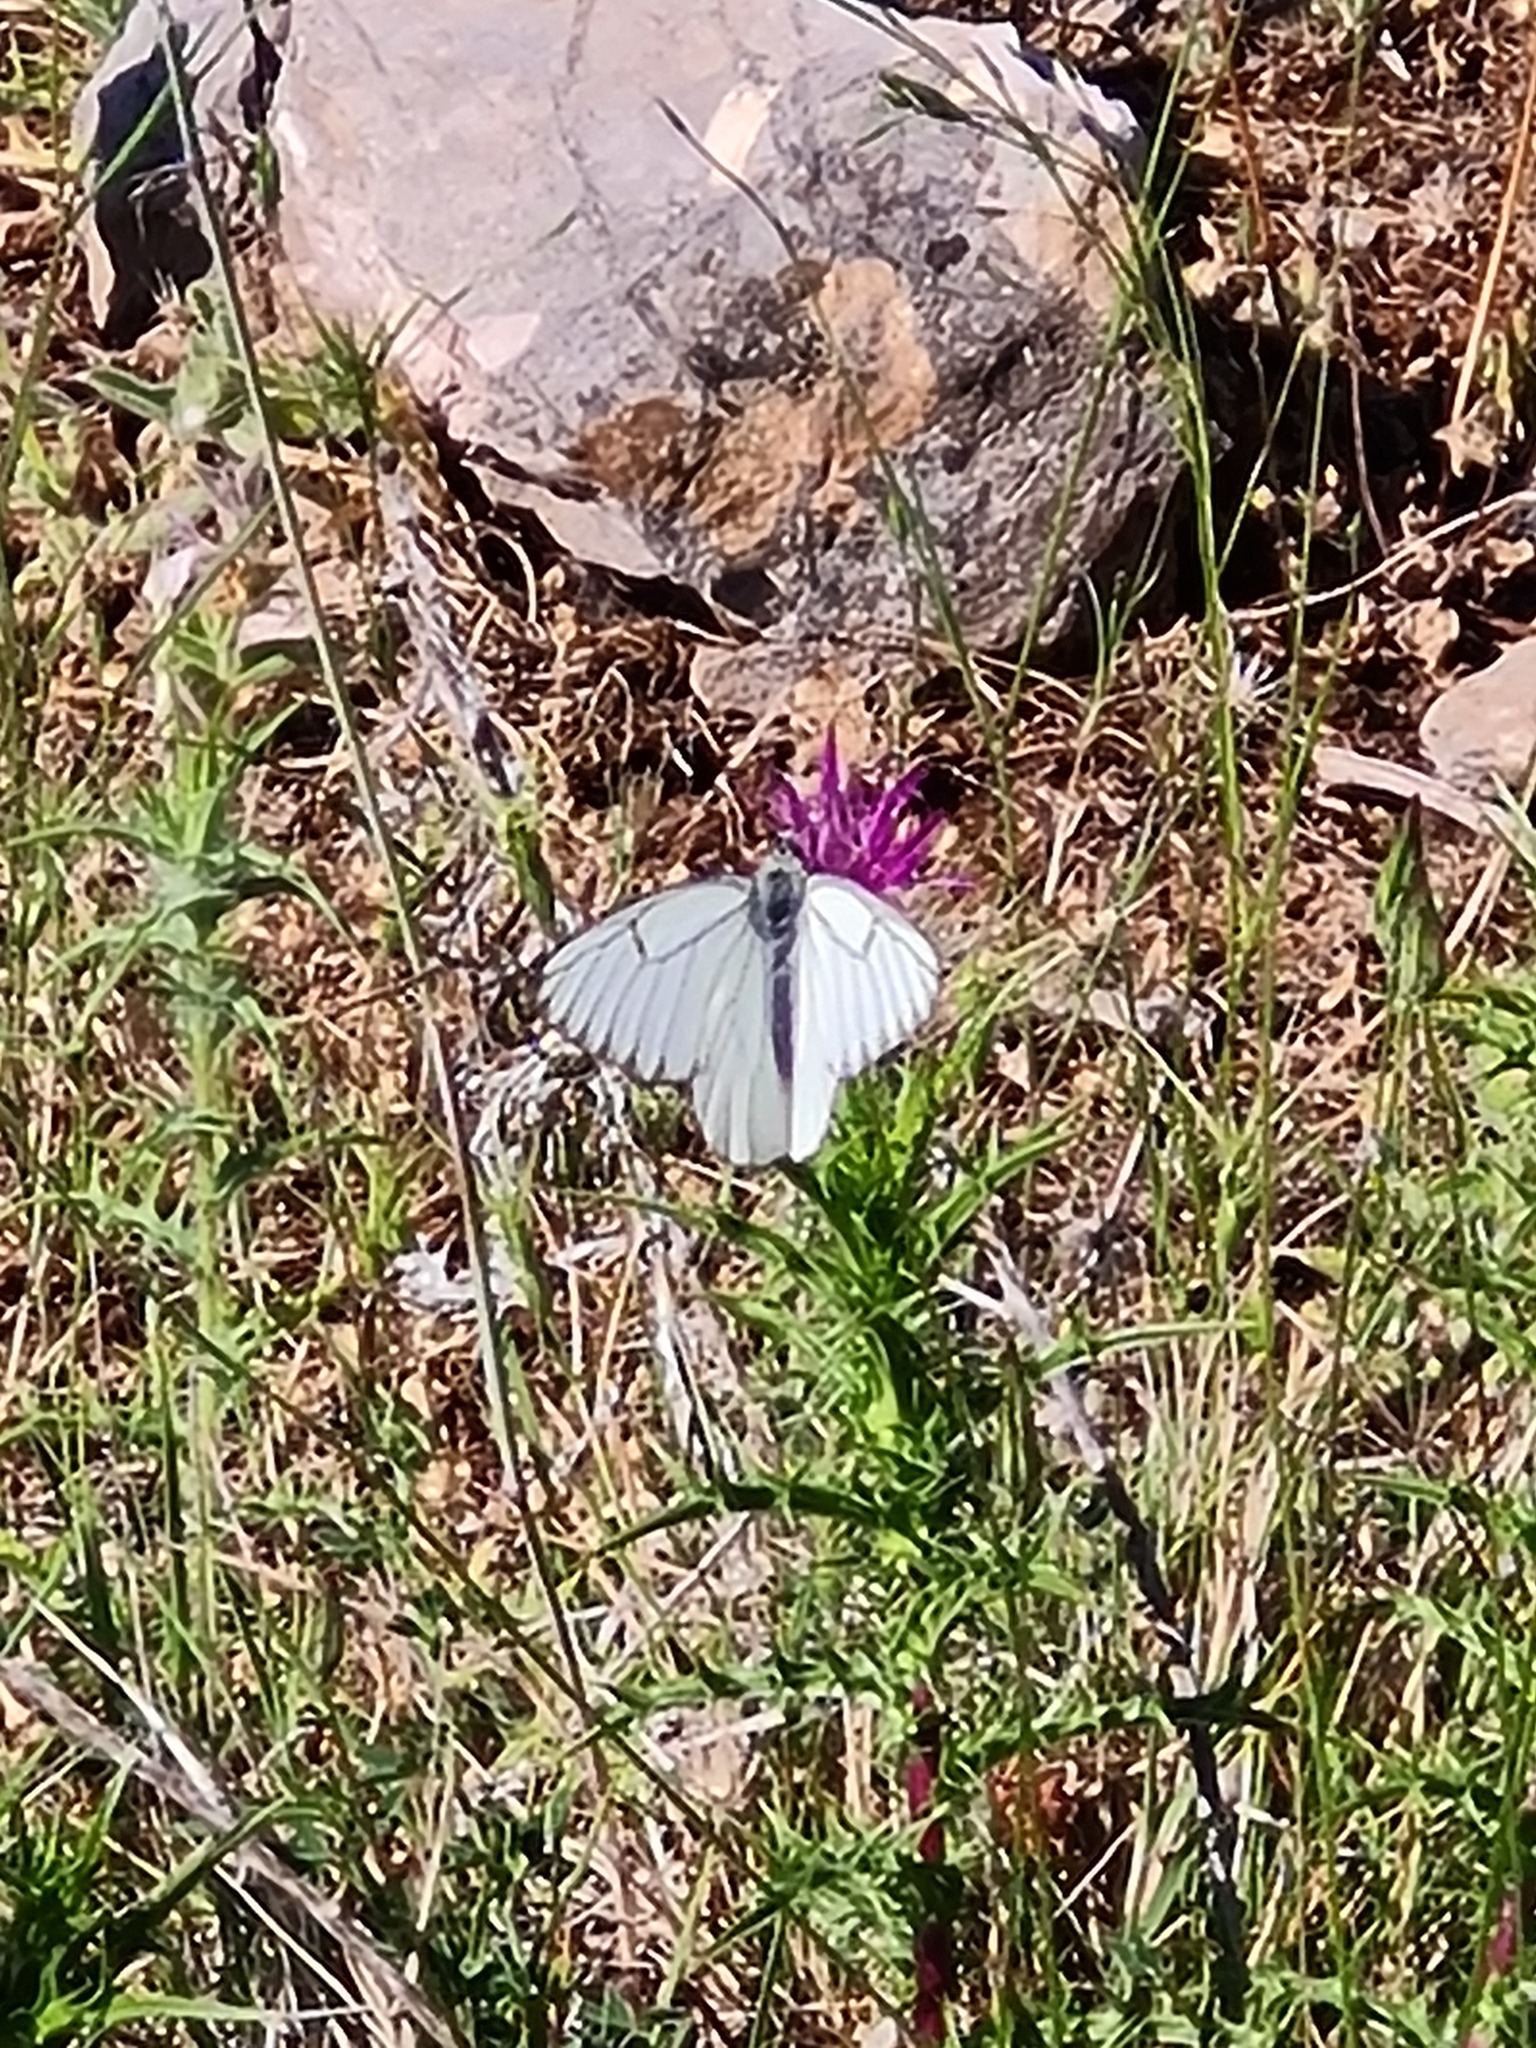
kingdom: Animalia
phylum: Arthropoda
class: Insecta
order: Lepidoptera
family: Pieridae
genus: Aporia
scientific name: Aporia crataegi
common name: Black-veined white
